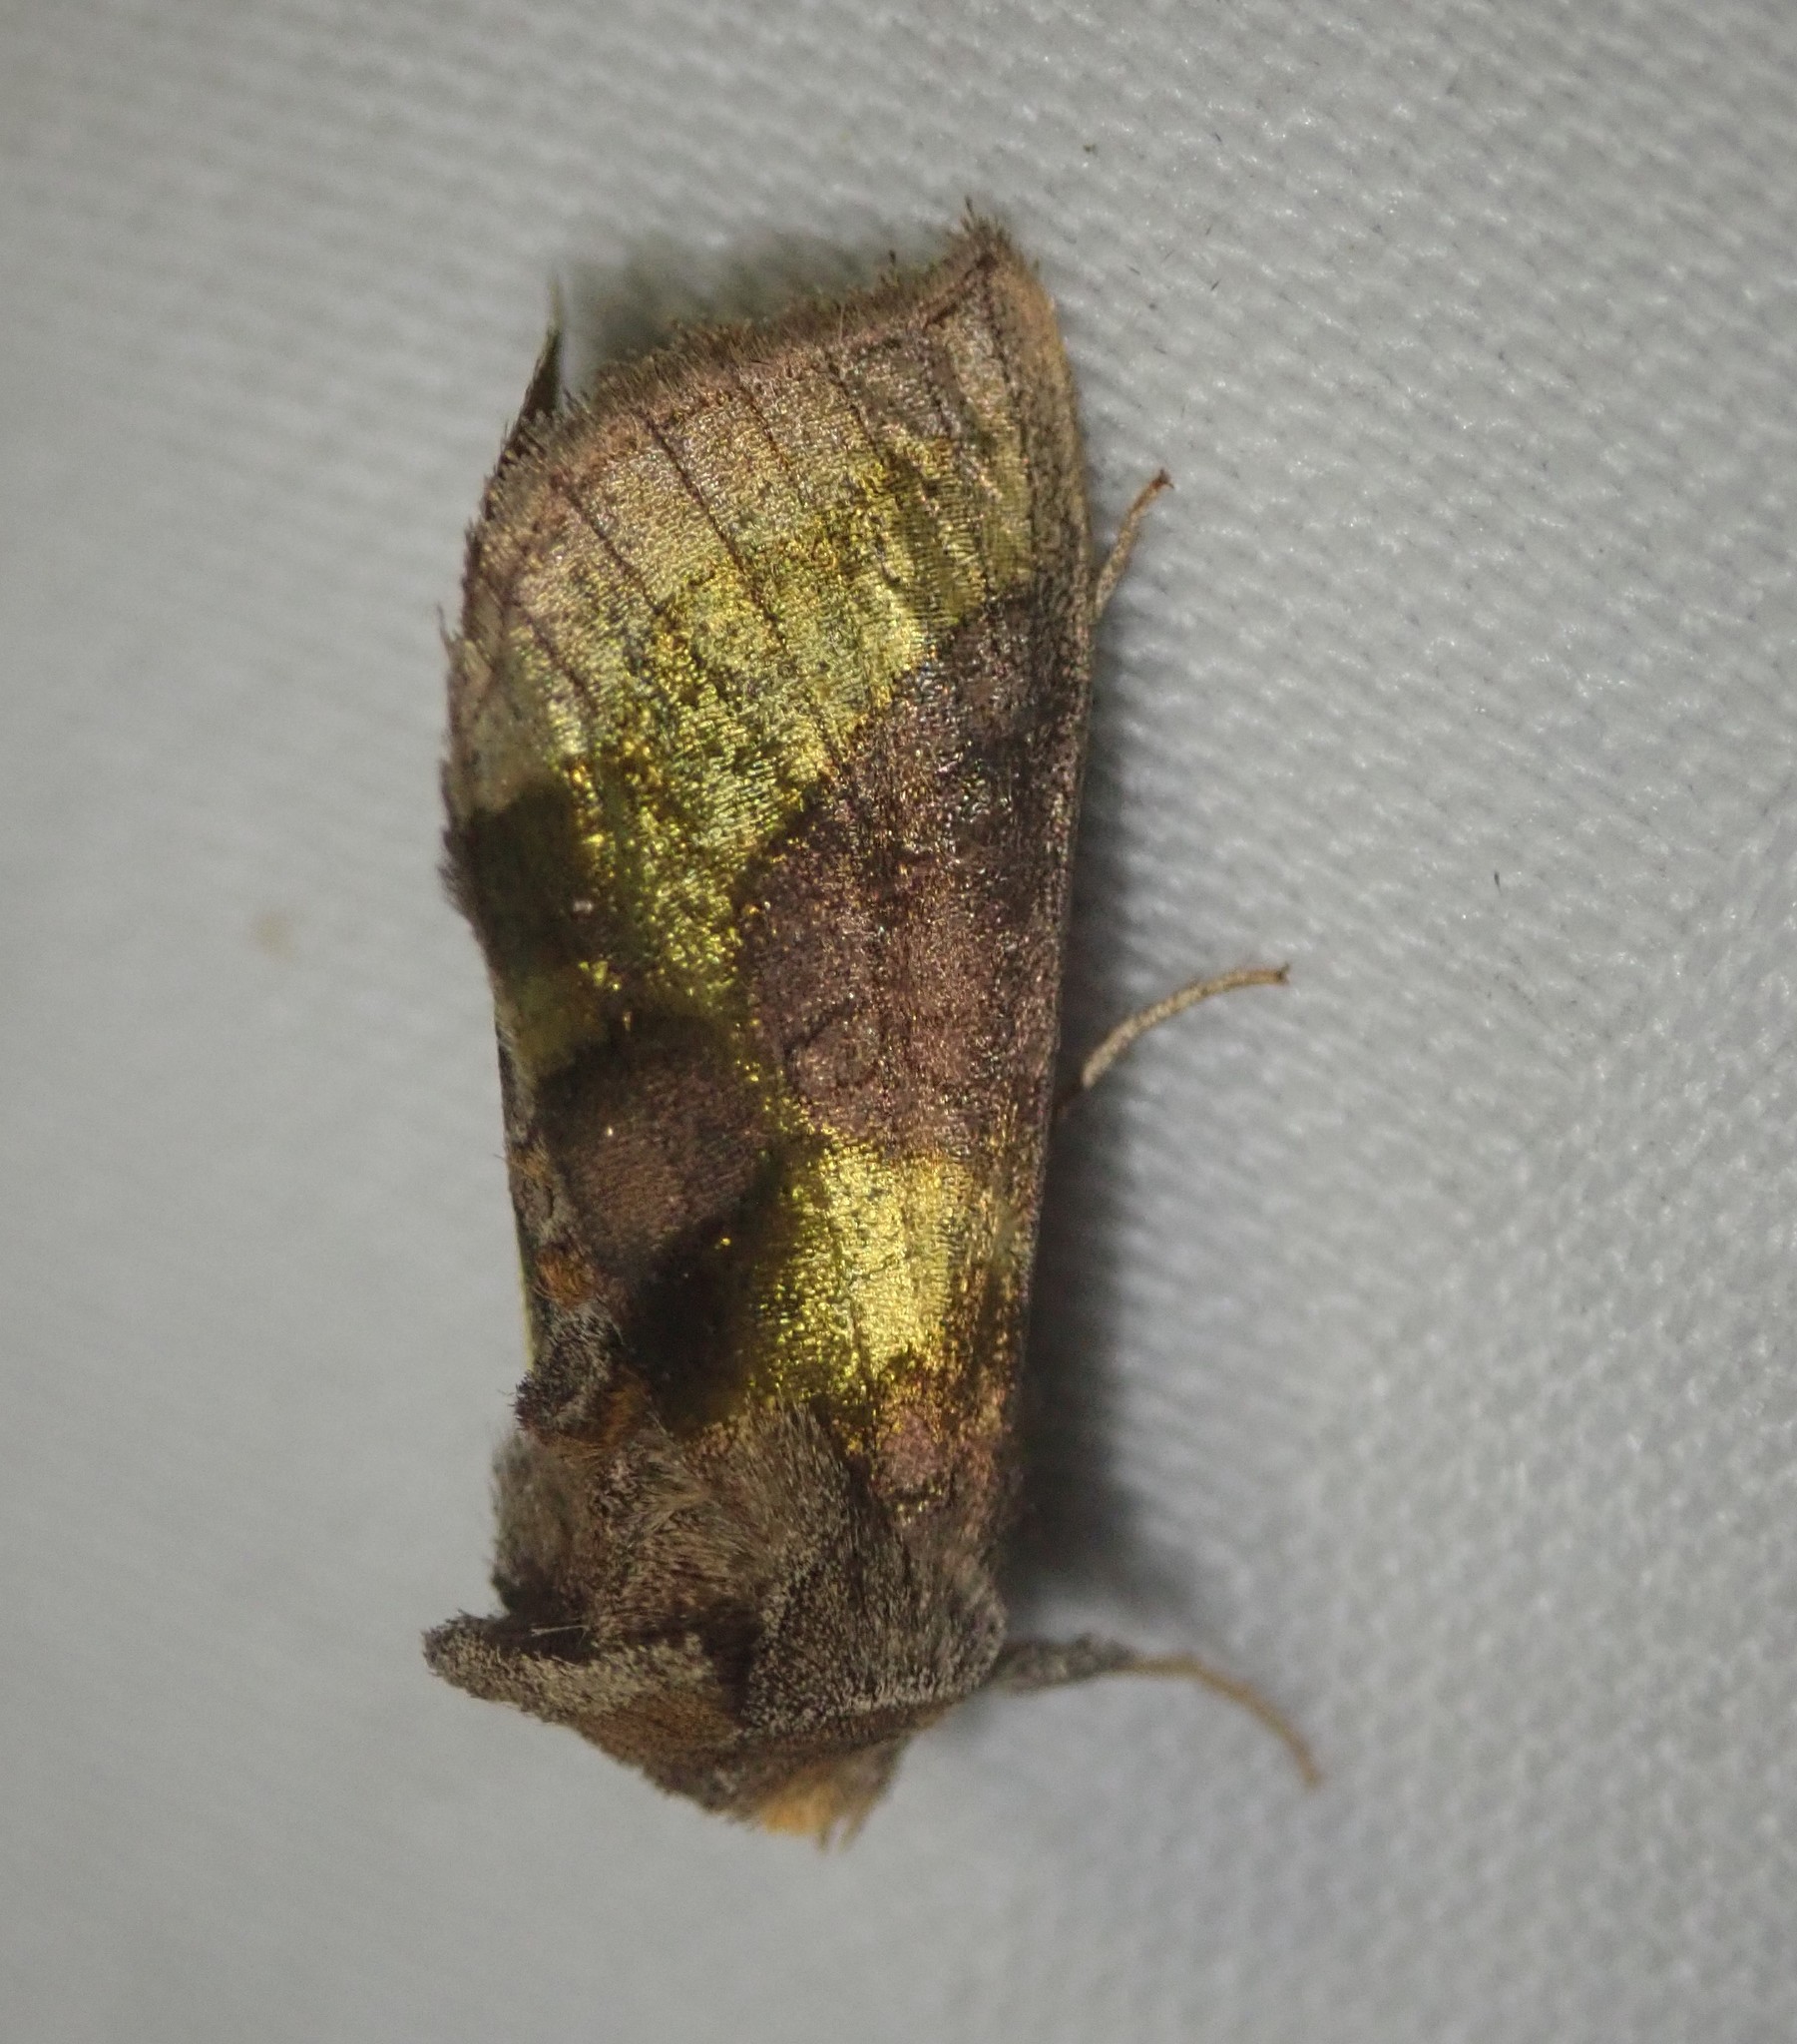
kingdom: Animalia
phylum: Arthropoda
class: Insecta
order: Lepidoptera
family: Noctuidae
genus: Diachrysia
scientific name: Diachrysia chrysitis
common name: Burnished brass
